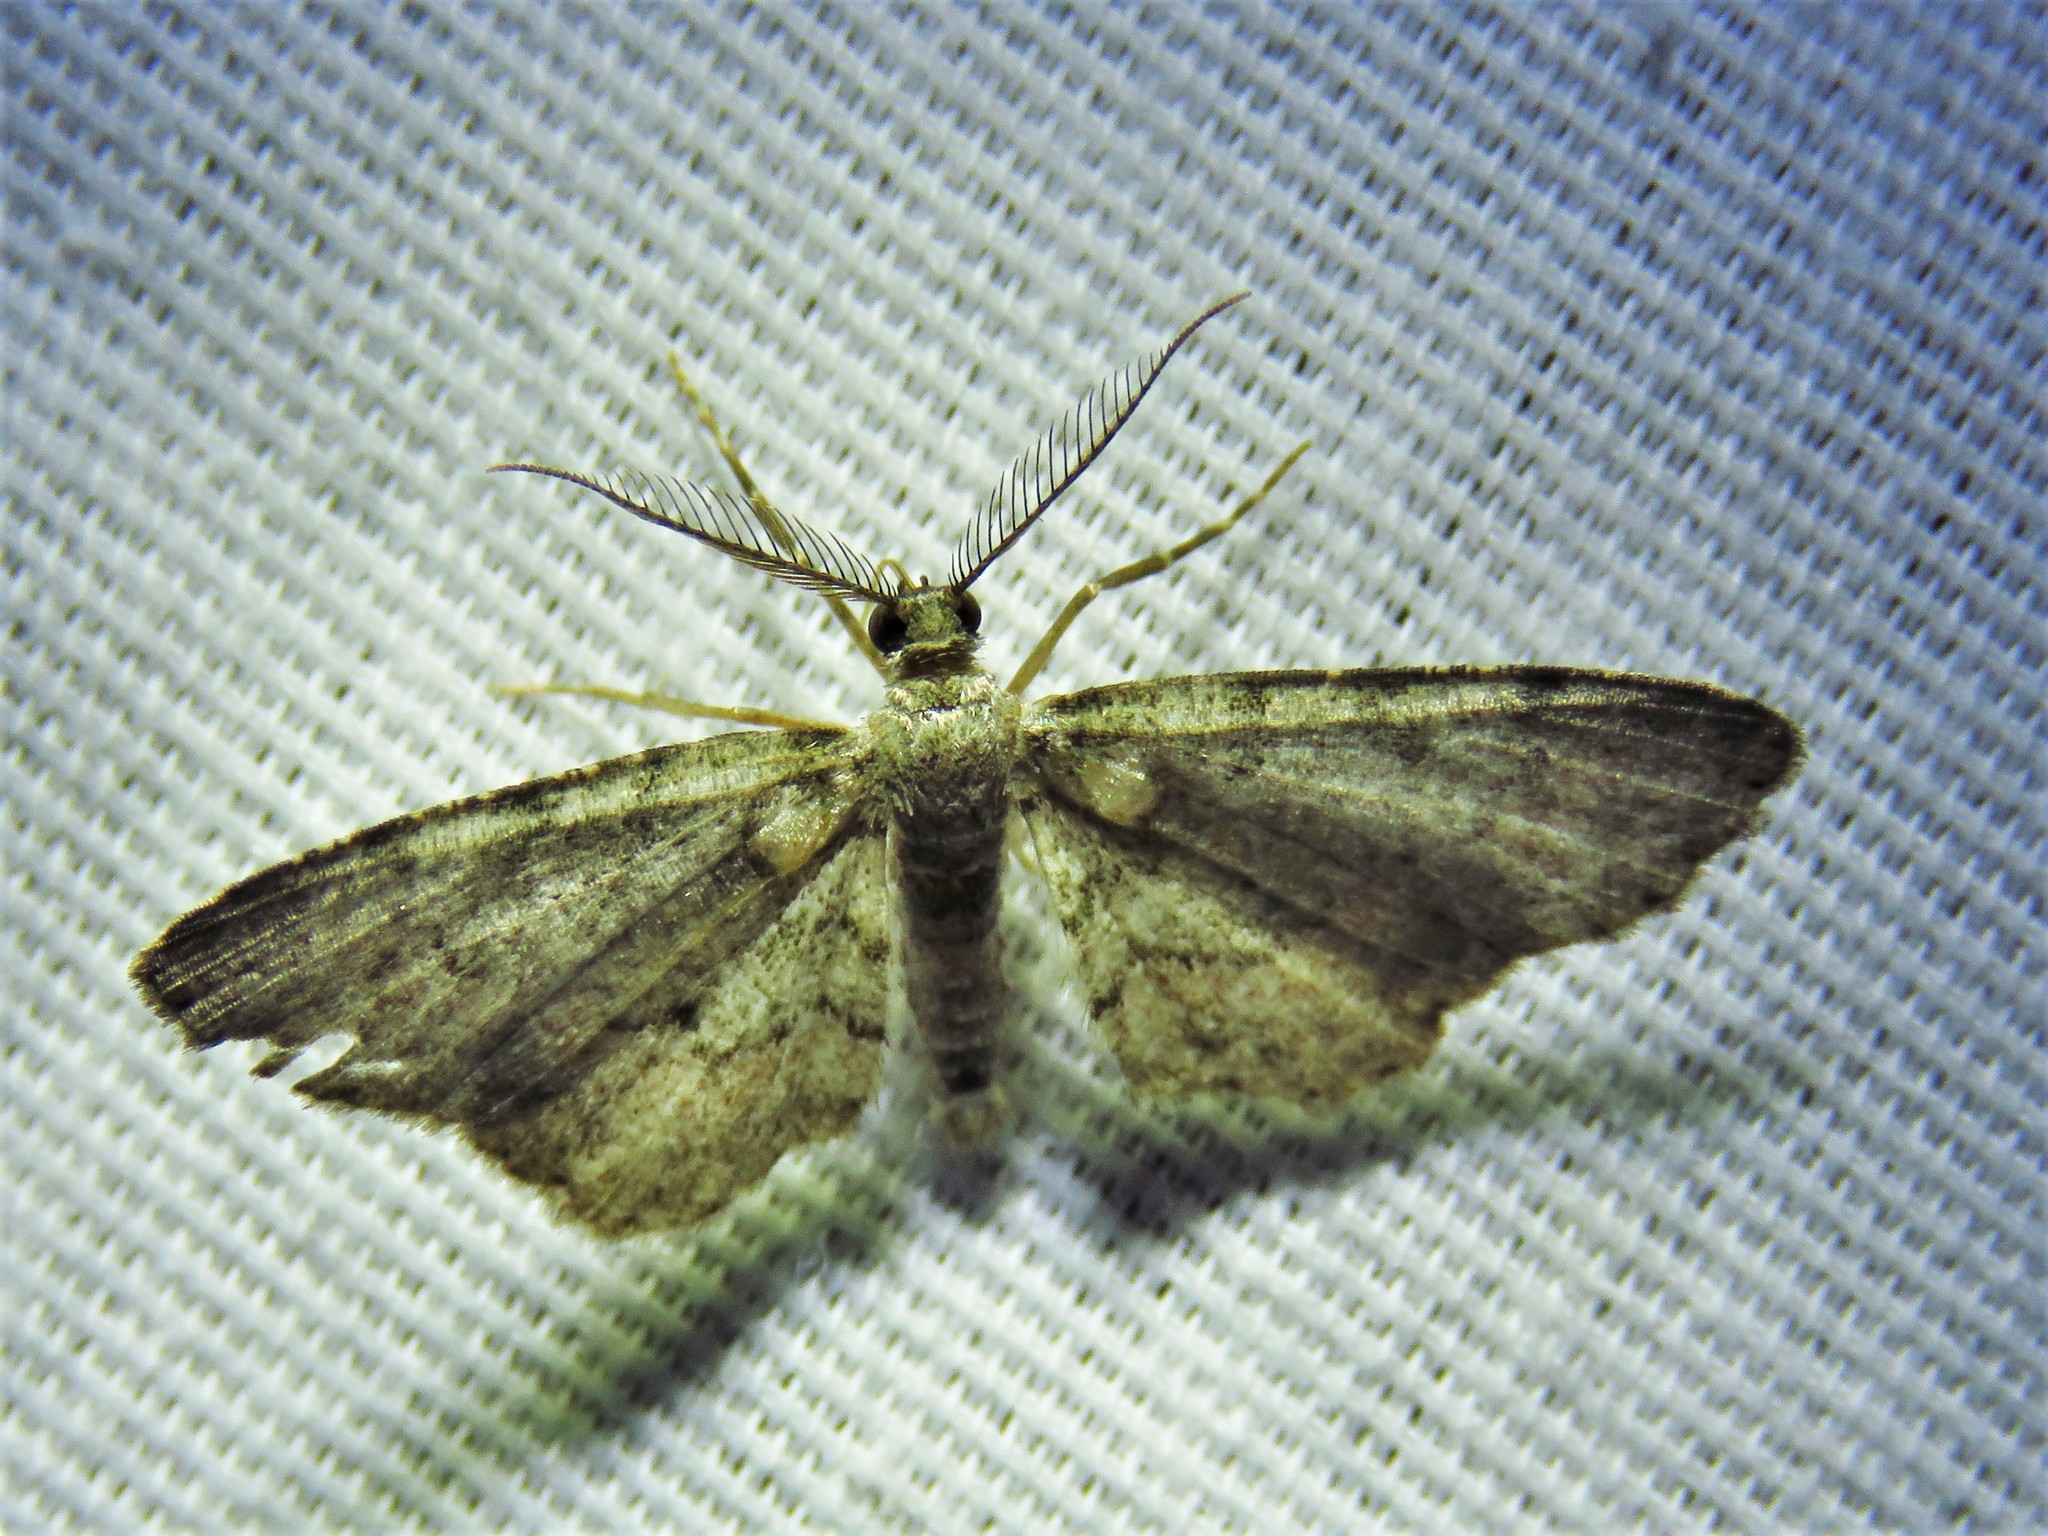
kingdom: Animalia
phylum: Arthropoda
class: Insecta
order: Lepidoptera
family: Geometridae
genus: Glenoides
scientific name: Glenoides texanaria
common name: Texas gray
